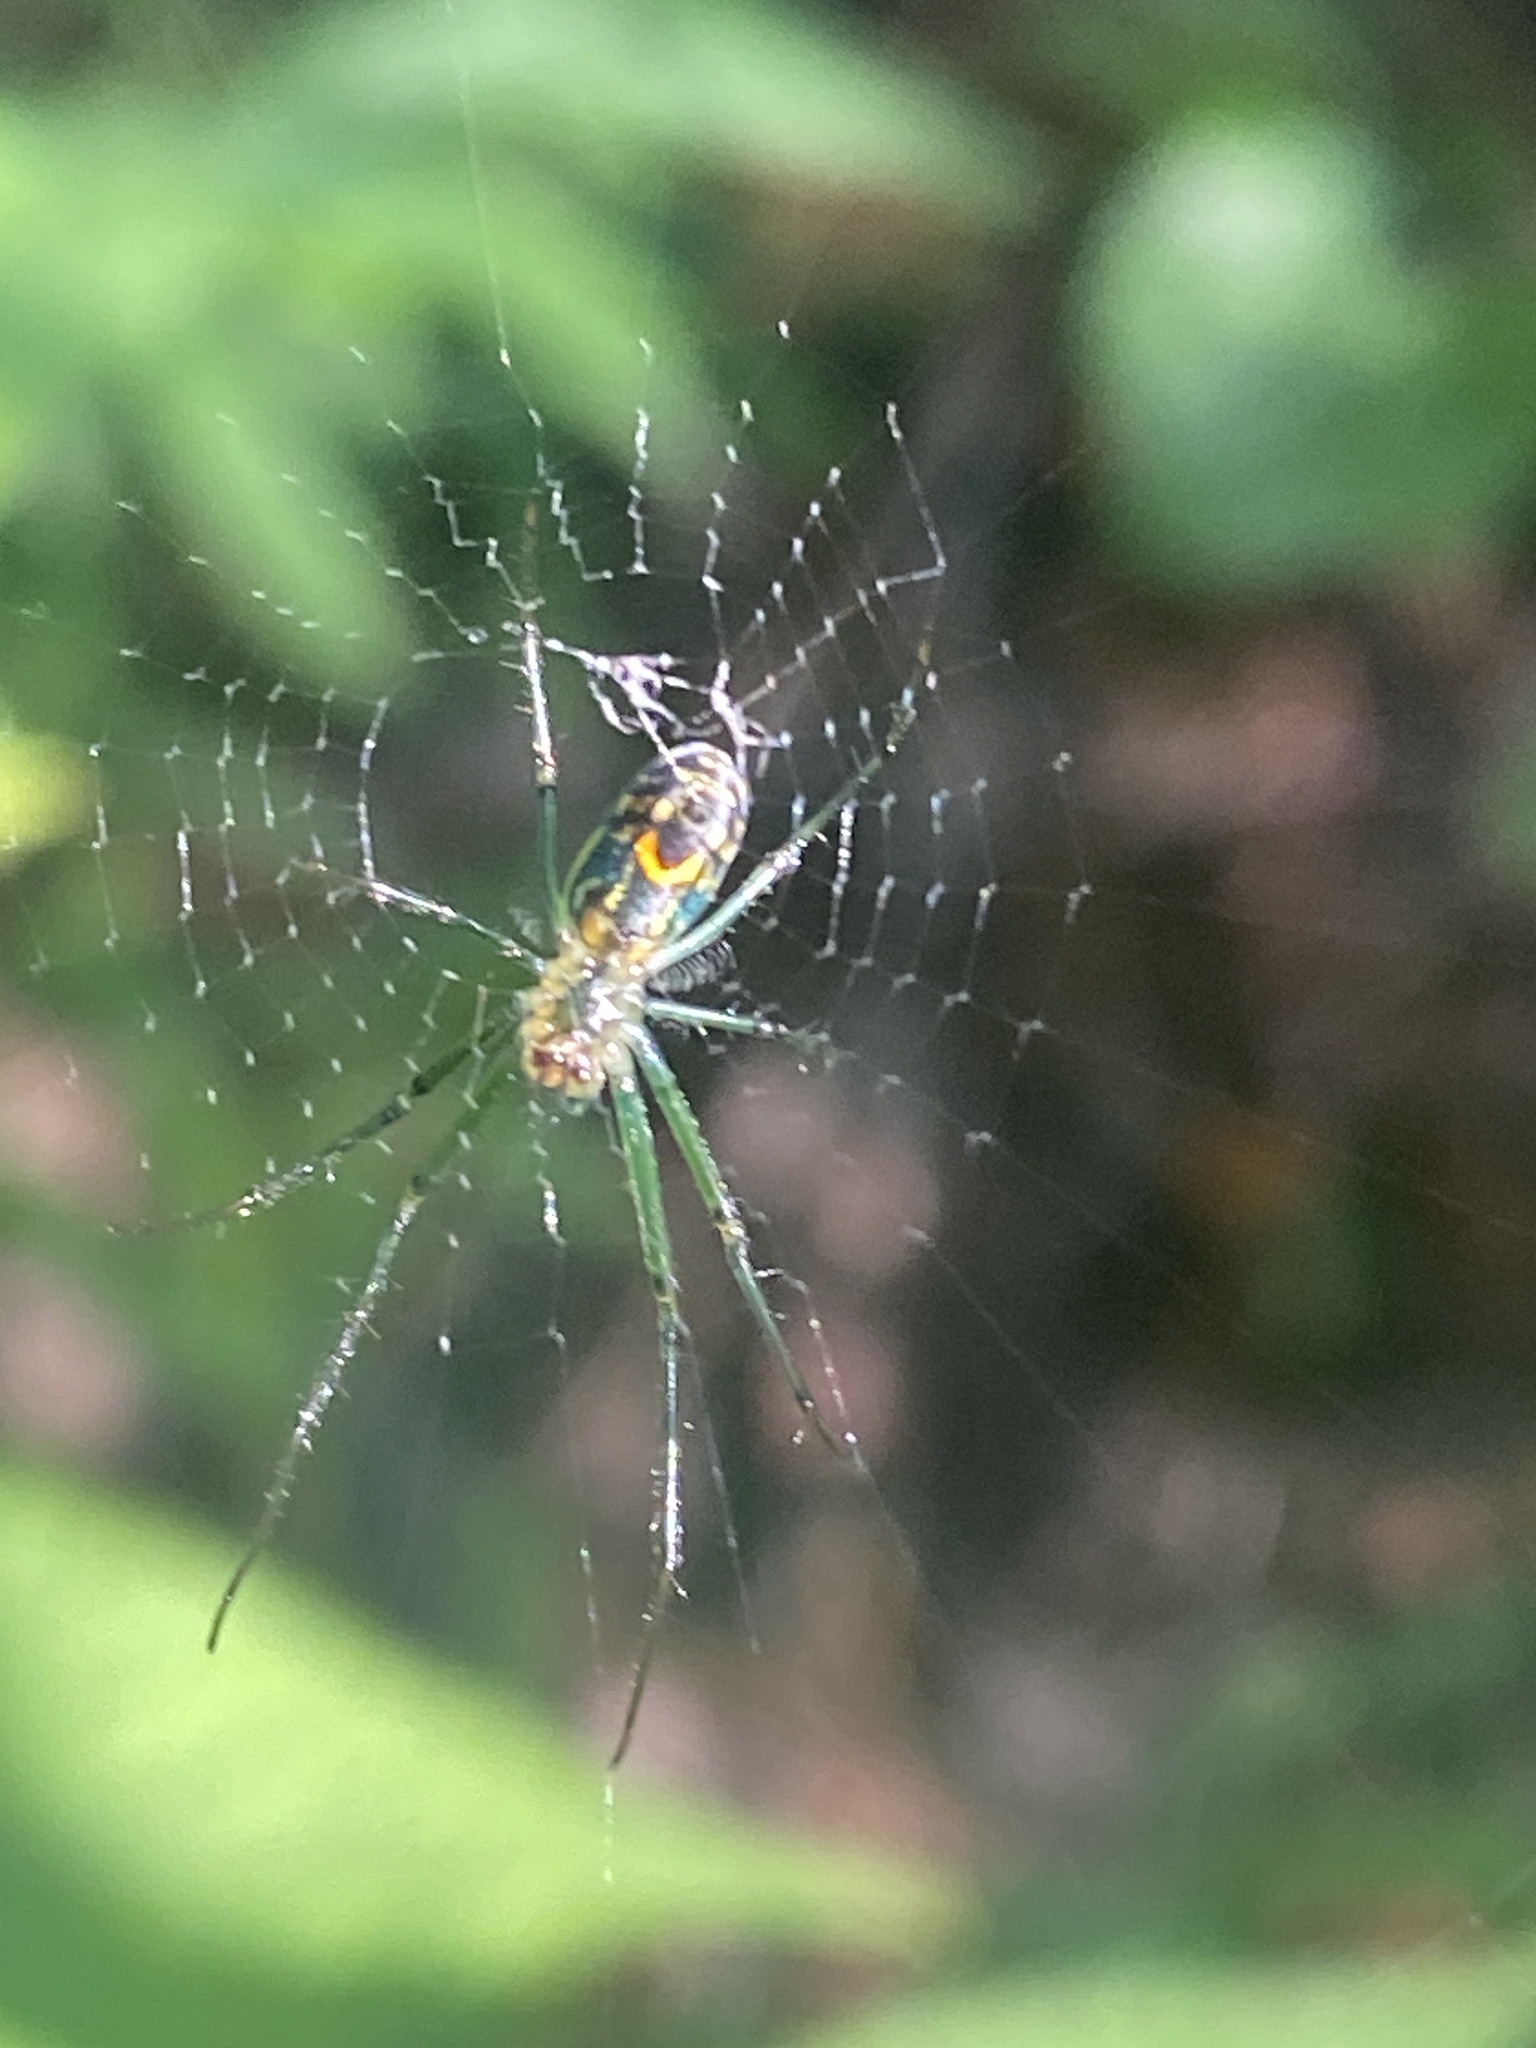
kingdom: Animalia
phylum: Arthropoda
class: Arachnida
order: Araneae
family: Tetragnathidae
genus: Leucauge
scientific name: Leucauge venusta
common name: Longjawed orb weavers
